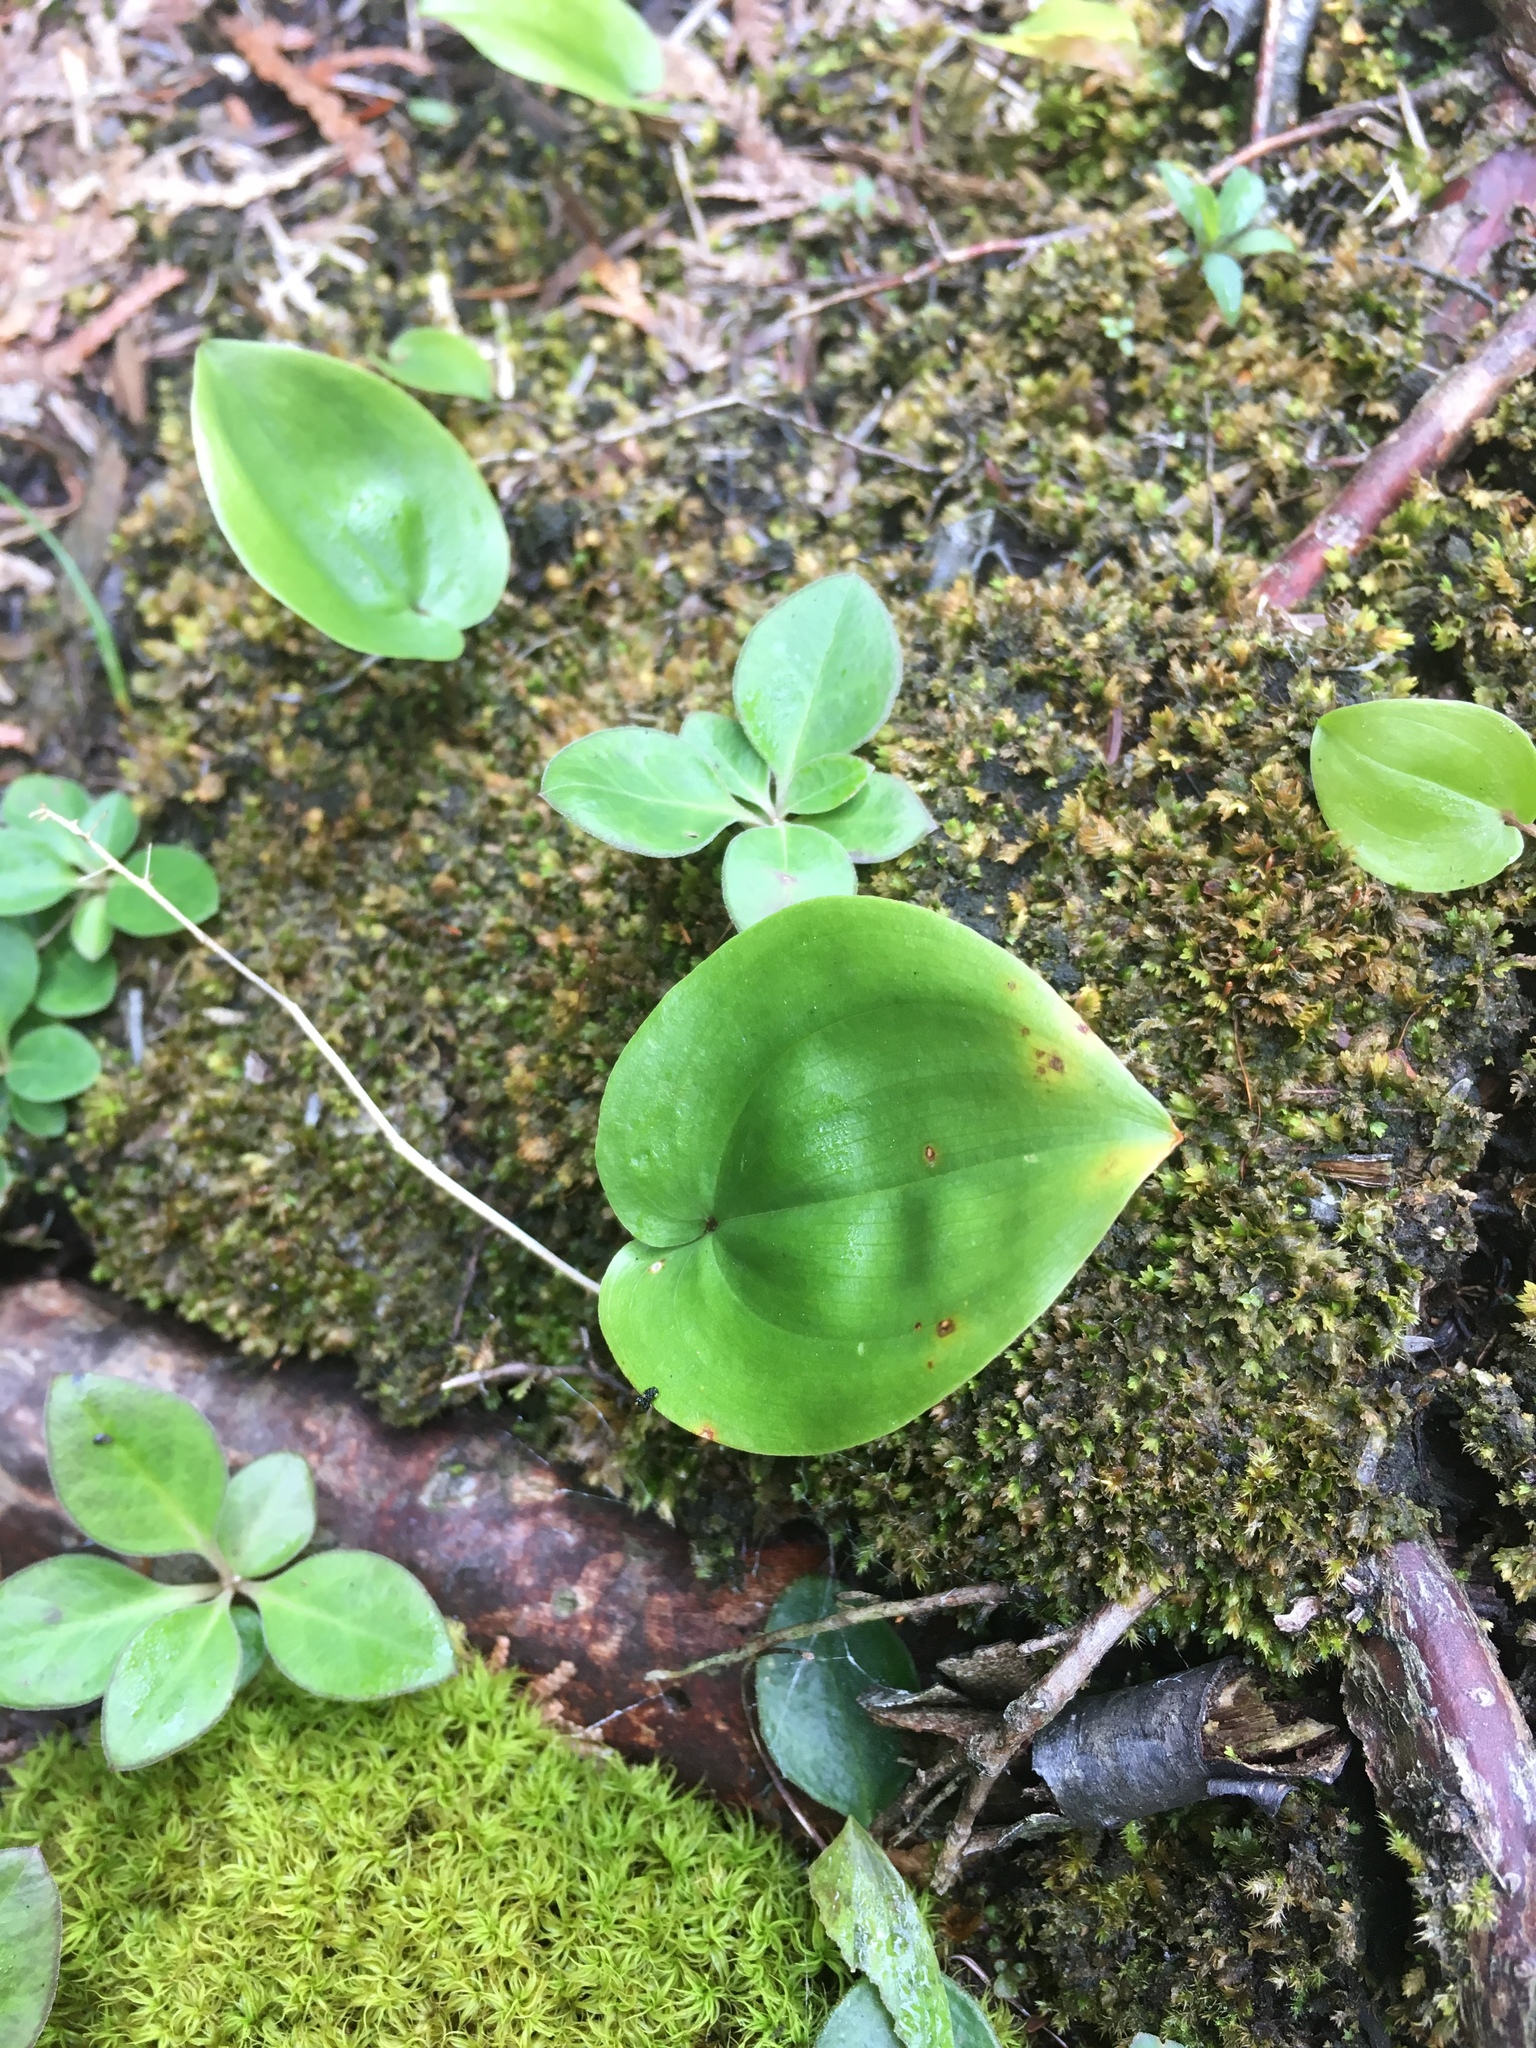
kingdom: Plantae
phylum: Tracheophyta
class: Liliopsida
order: Asparagales
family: Asparagaceae
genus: Maianthemum
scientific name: Maianthemum canadense
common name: False lily-of-the-valley
